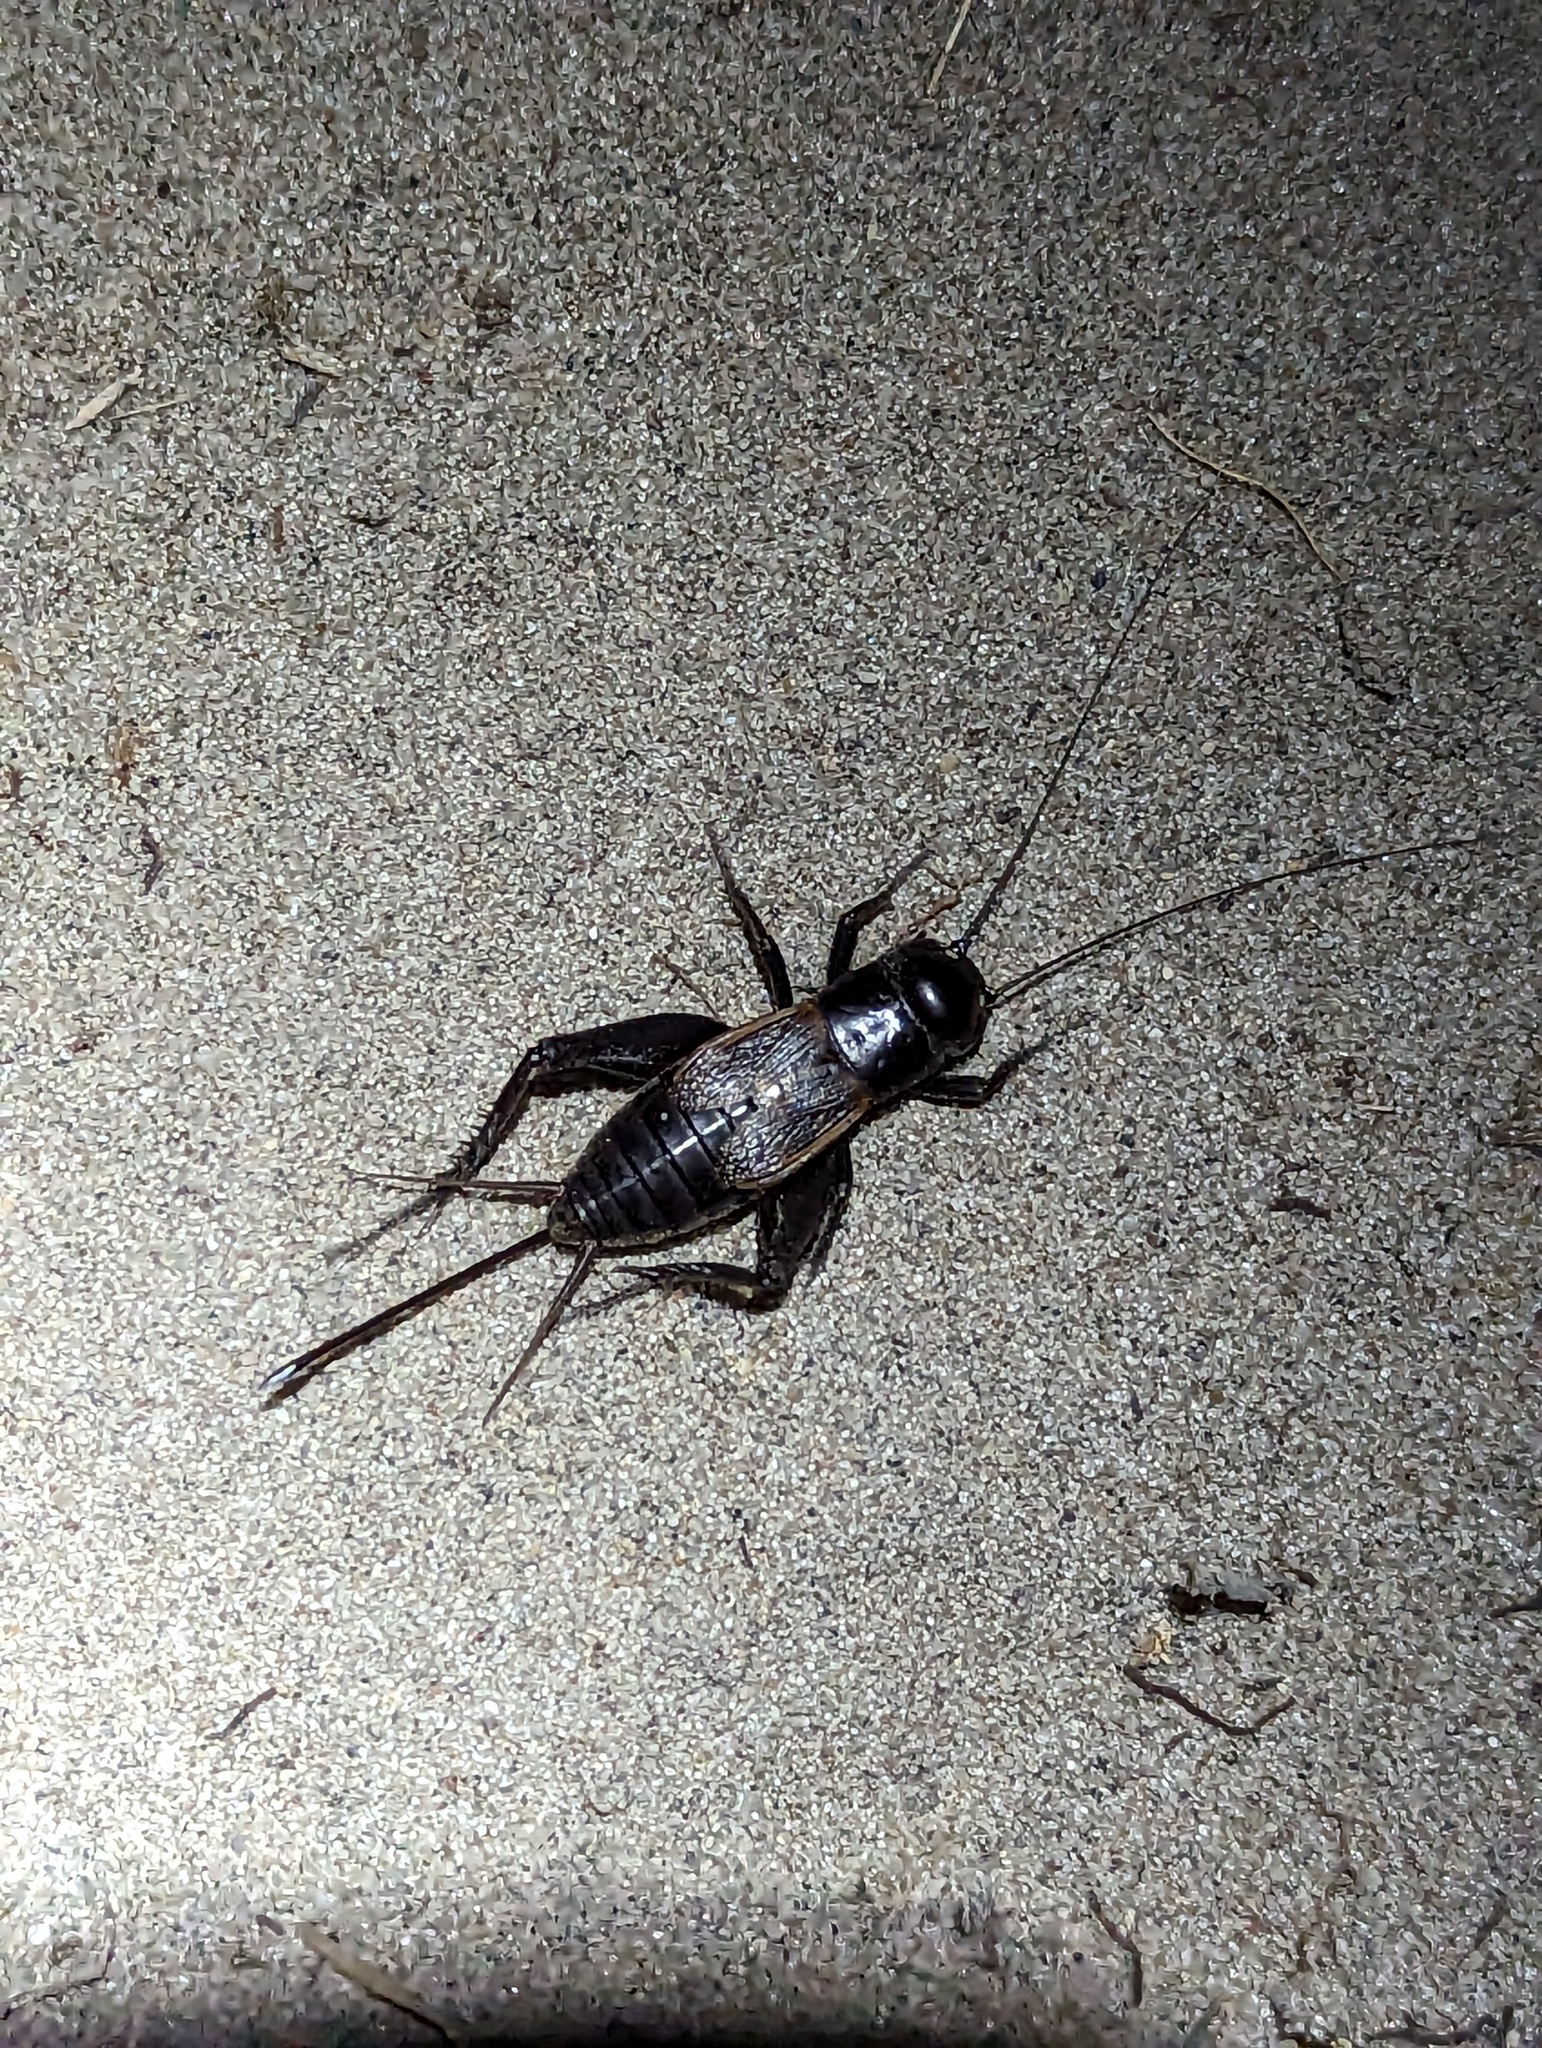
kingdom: Animalia
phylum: Arthropoda
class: Insecta
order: Orthoptera
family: Gryllidae
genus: Gryllus
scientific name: Gryllus pennsylvanicus
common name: Fall field cricket
